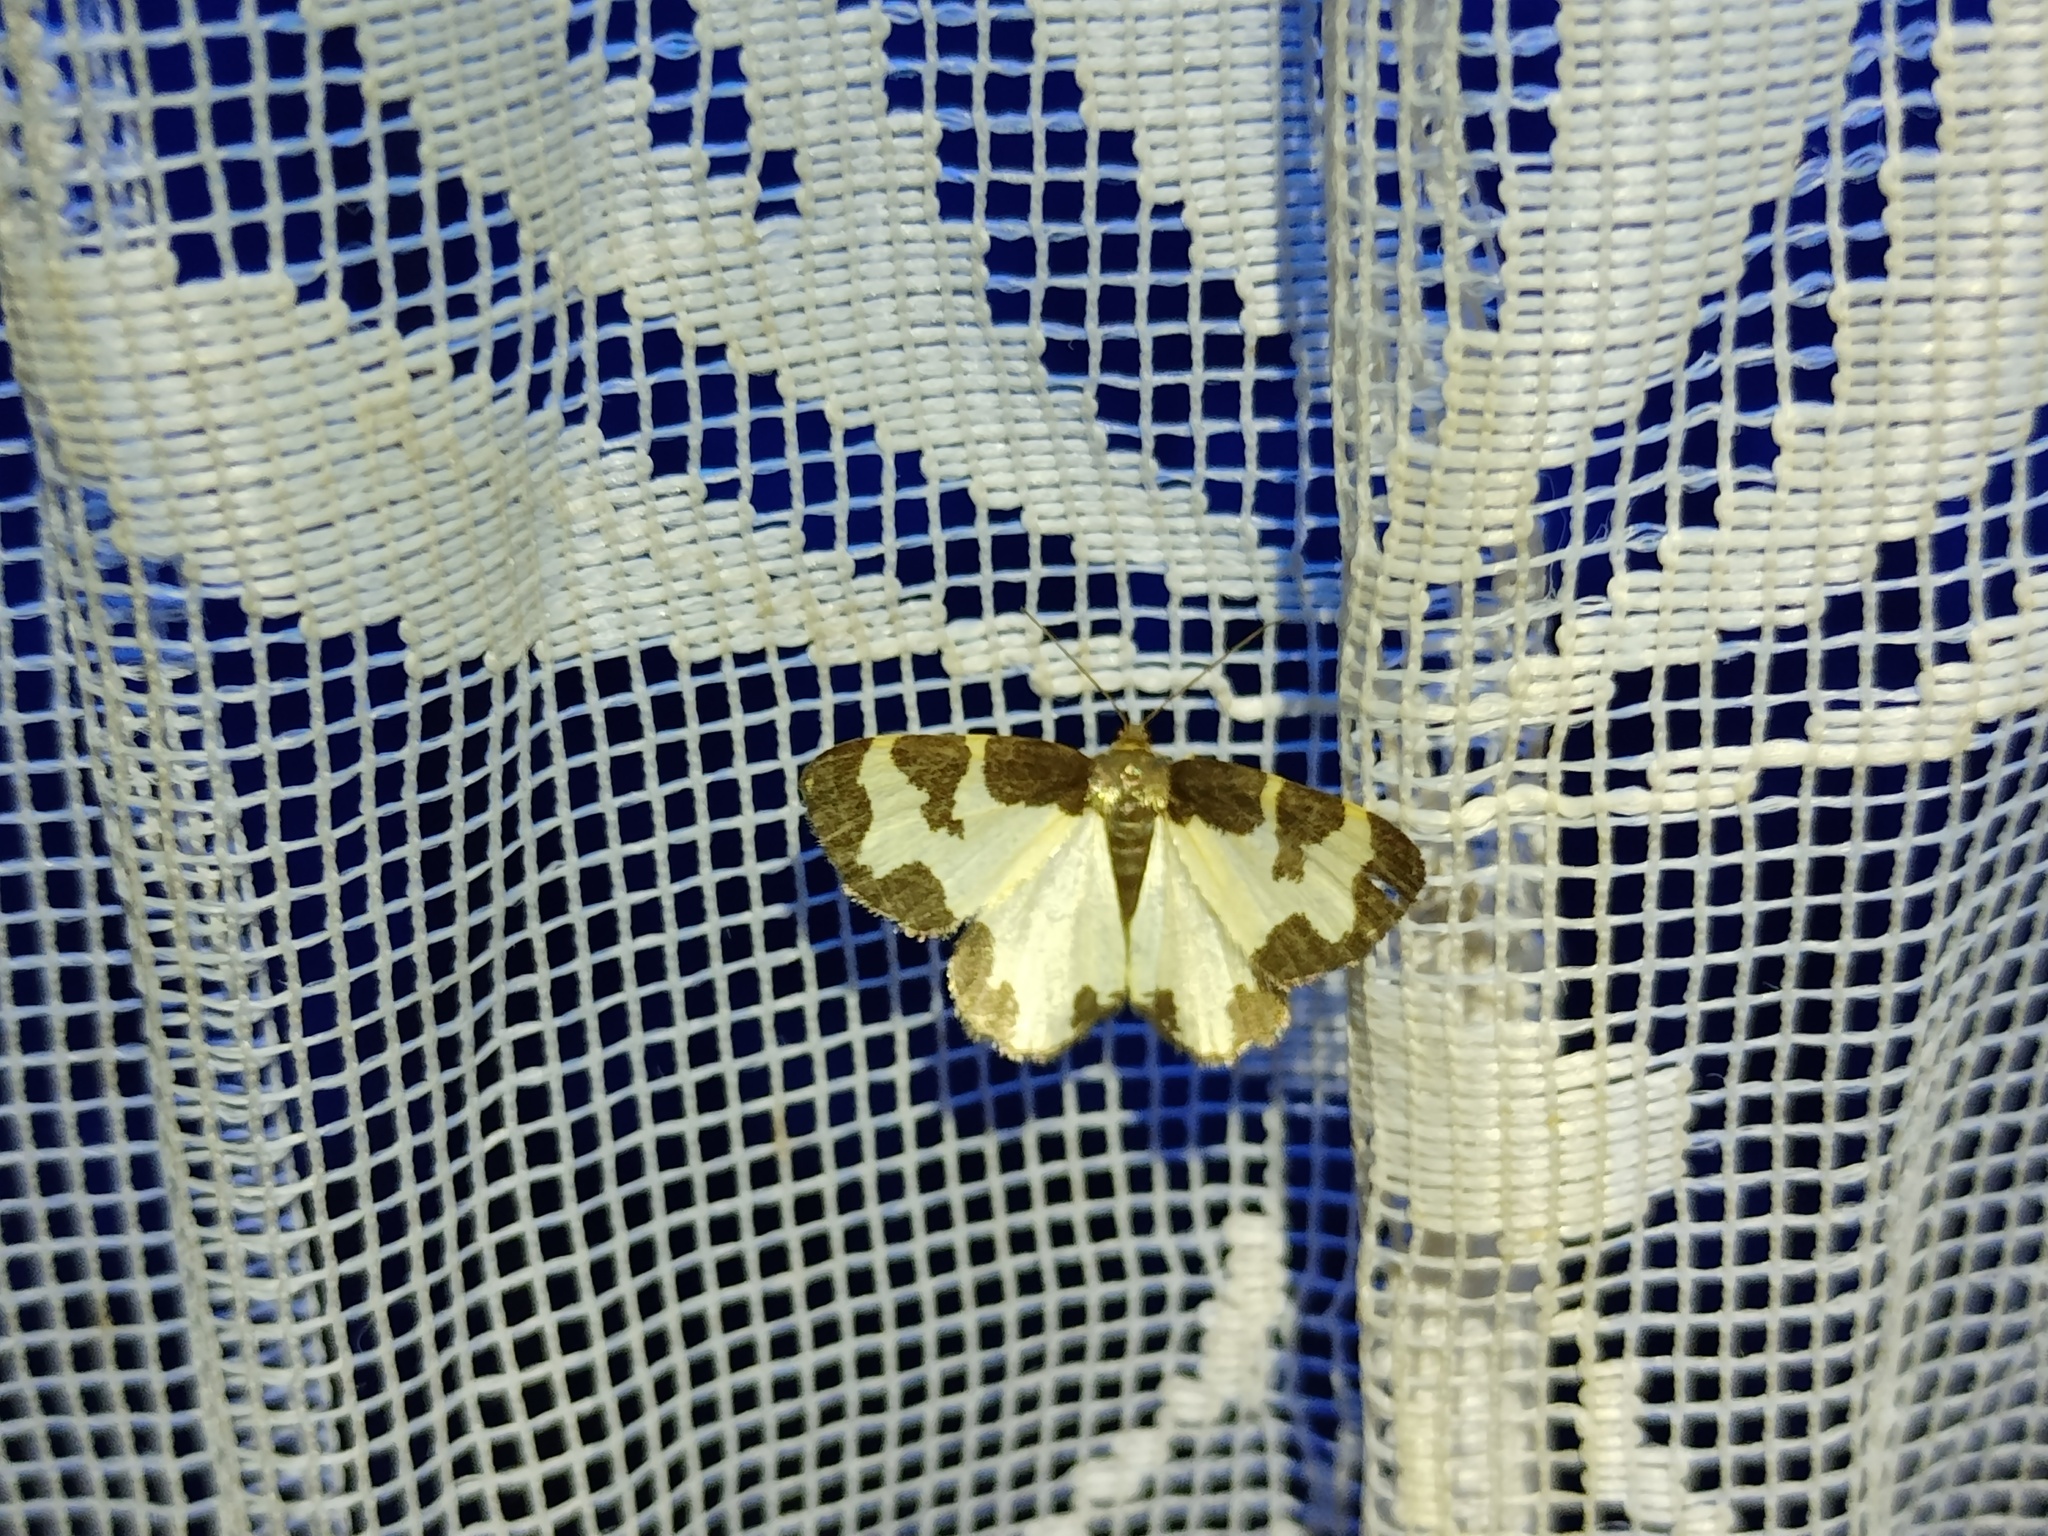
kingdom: Animalia
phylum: Arthropoda
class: Insecta
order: Lepidoptera
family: Geometridae
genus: Lomaspilis
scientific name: Lomaspilis marginata
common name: Clouded border
